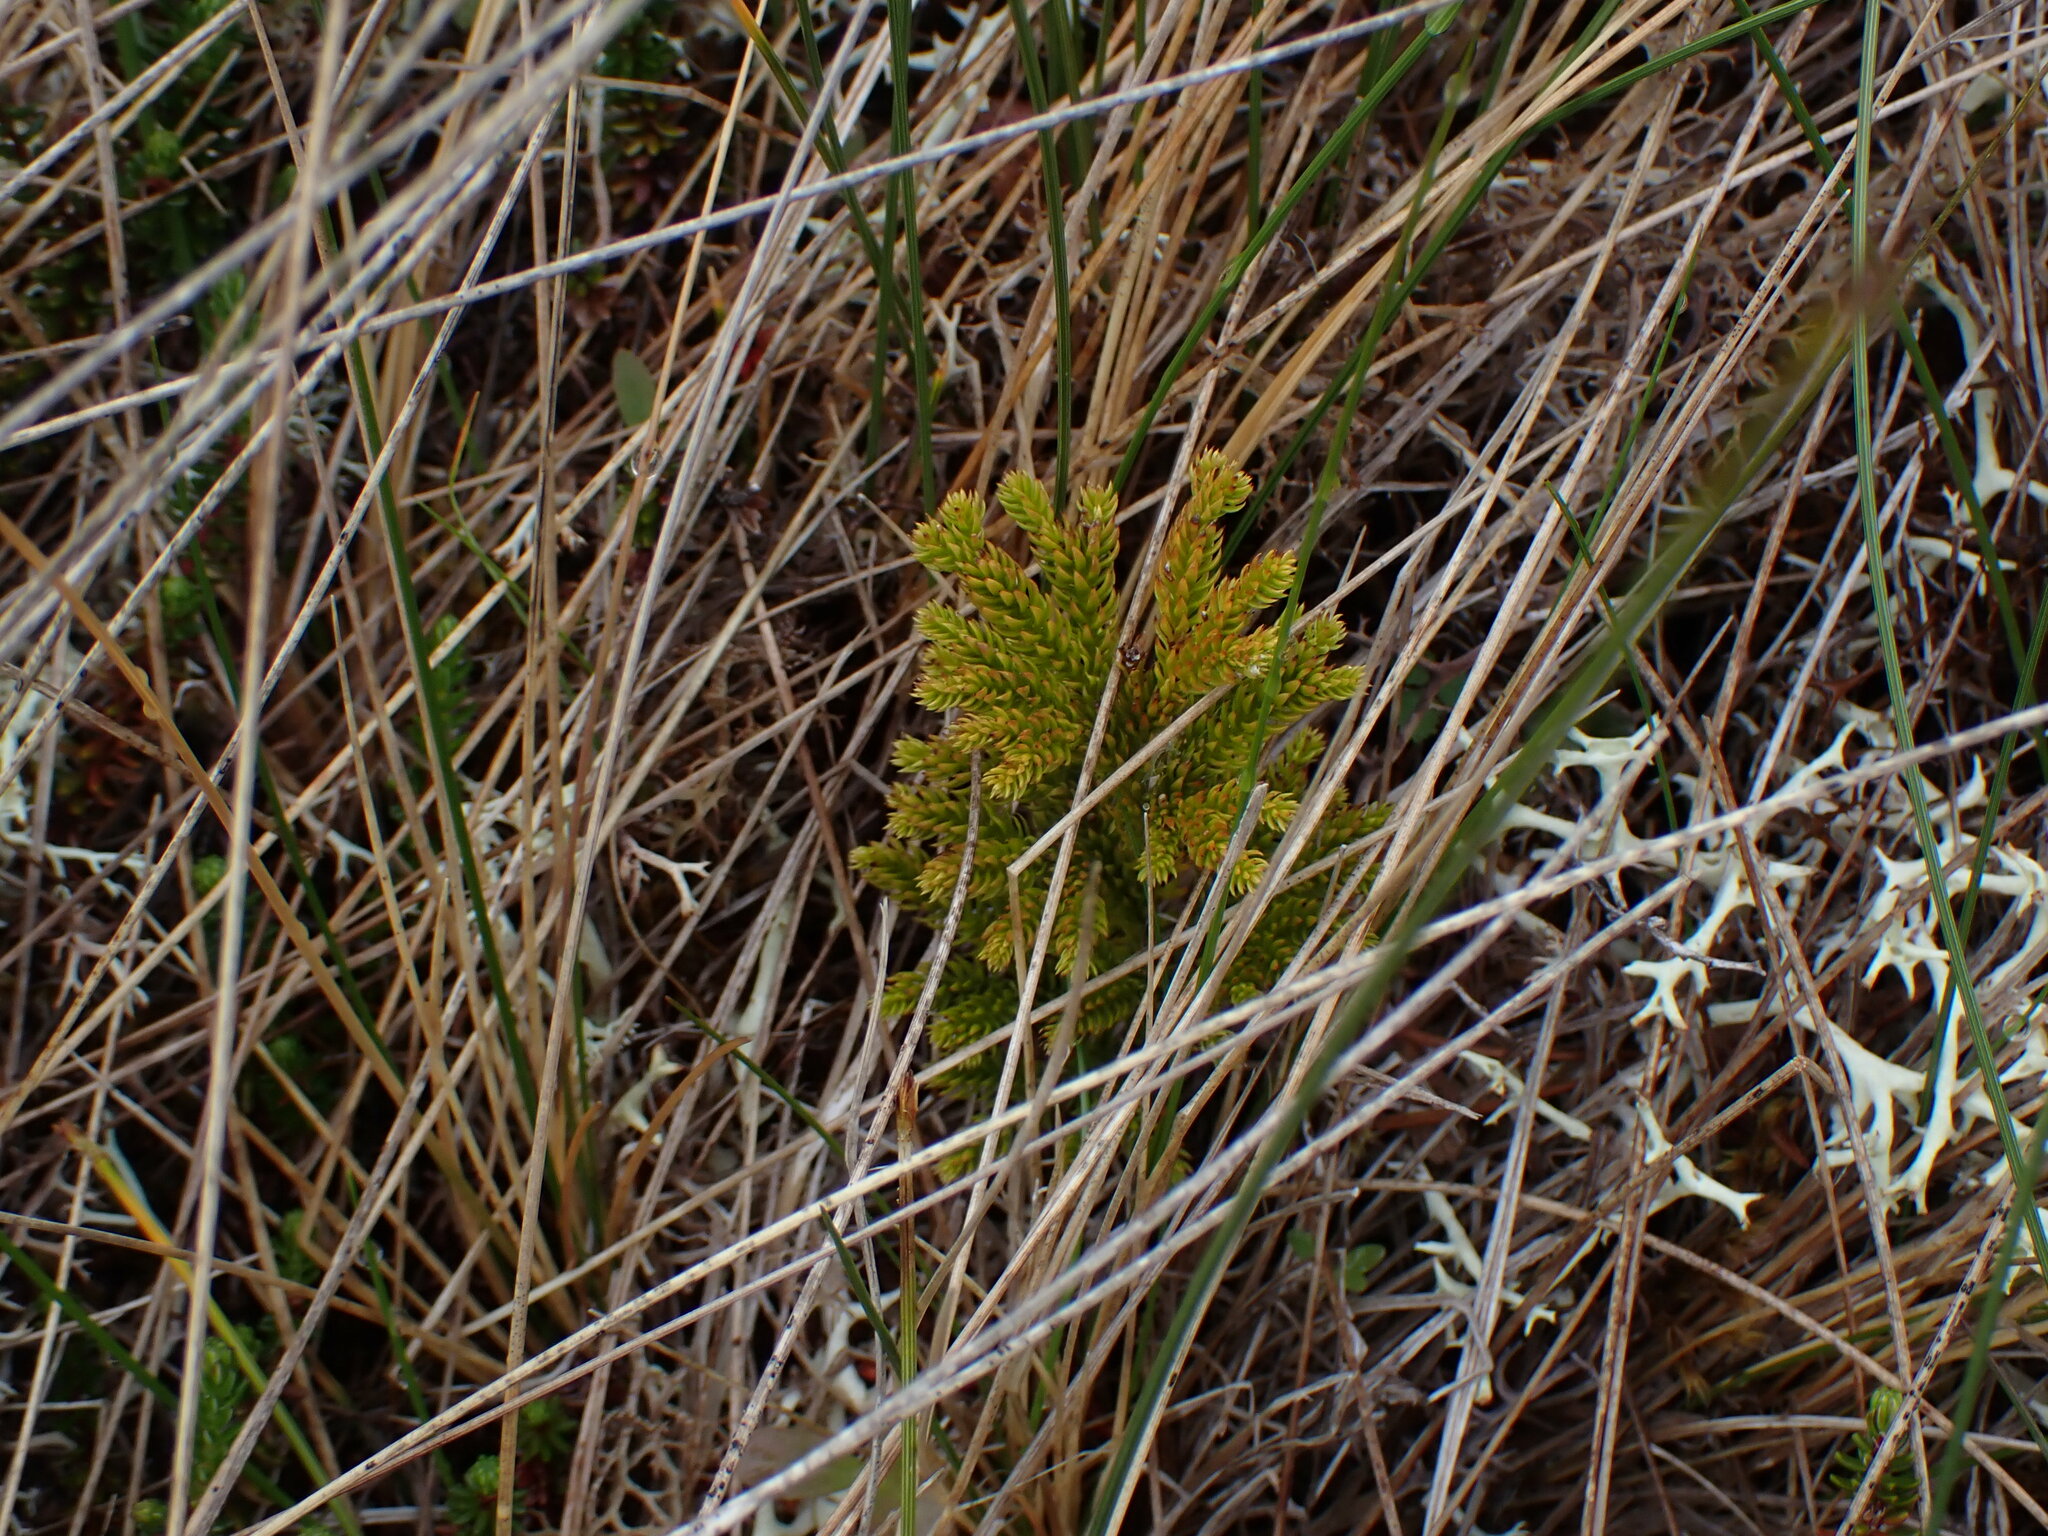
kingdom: Plantae
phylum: Tracheophyta
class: Lycopodiopsida
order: Lycopodiales
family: Lycopodiaceae
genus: Dendrolycopodium
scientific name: Dendrolycopodium dendroideum
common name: Northern tree-clubmoss
